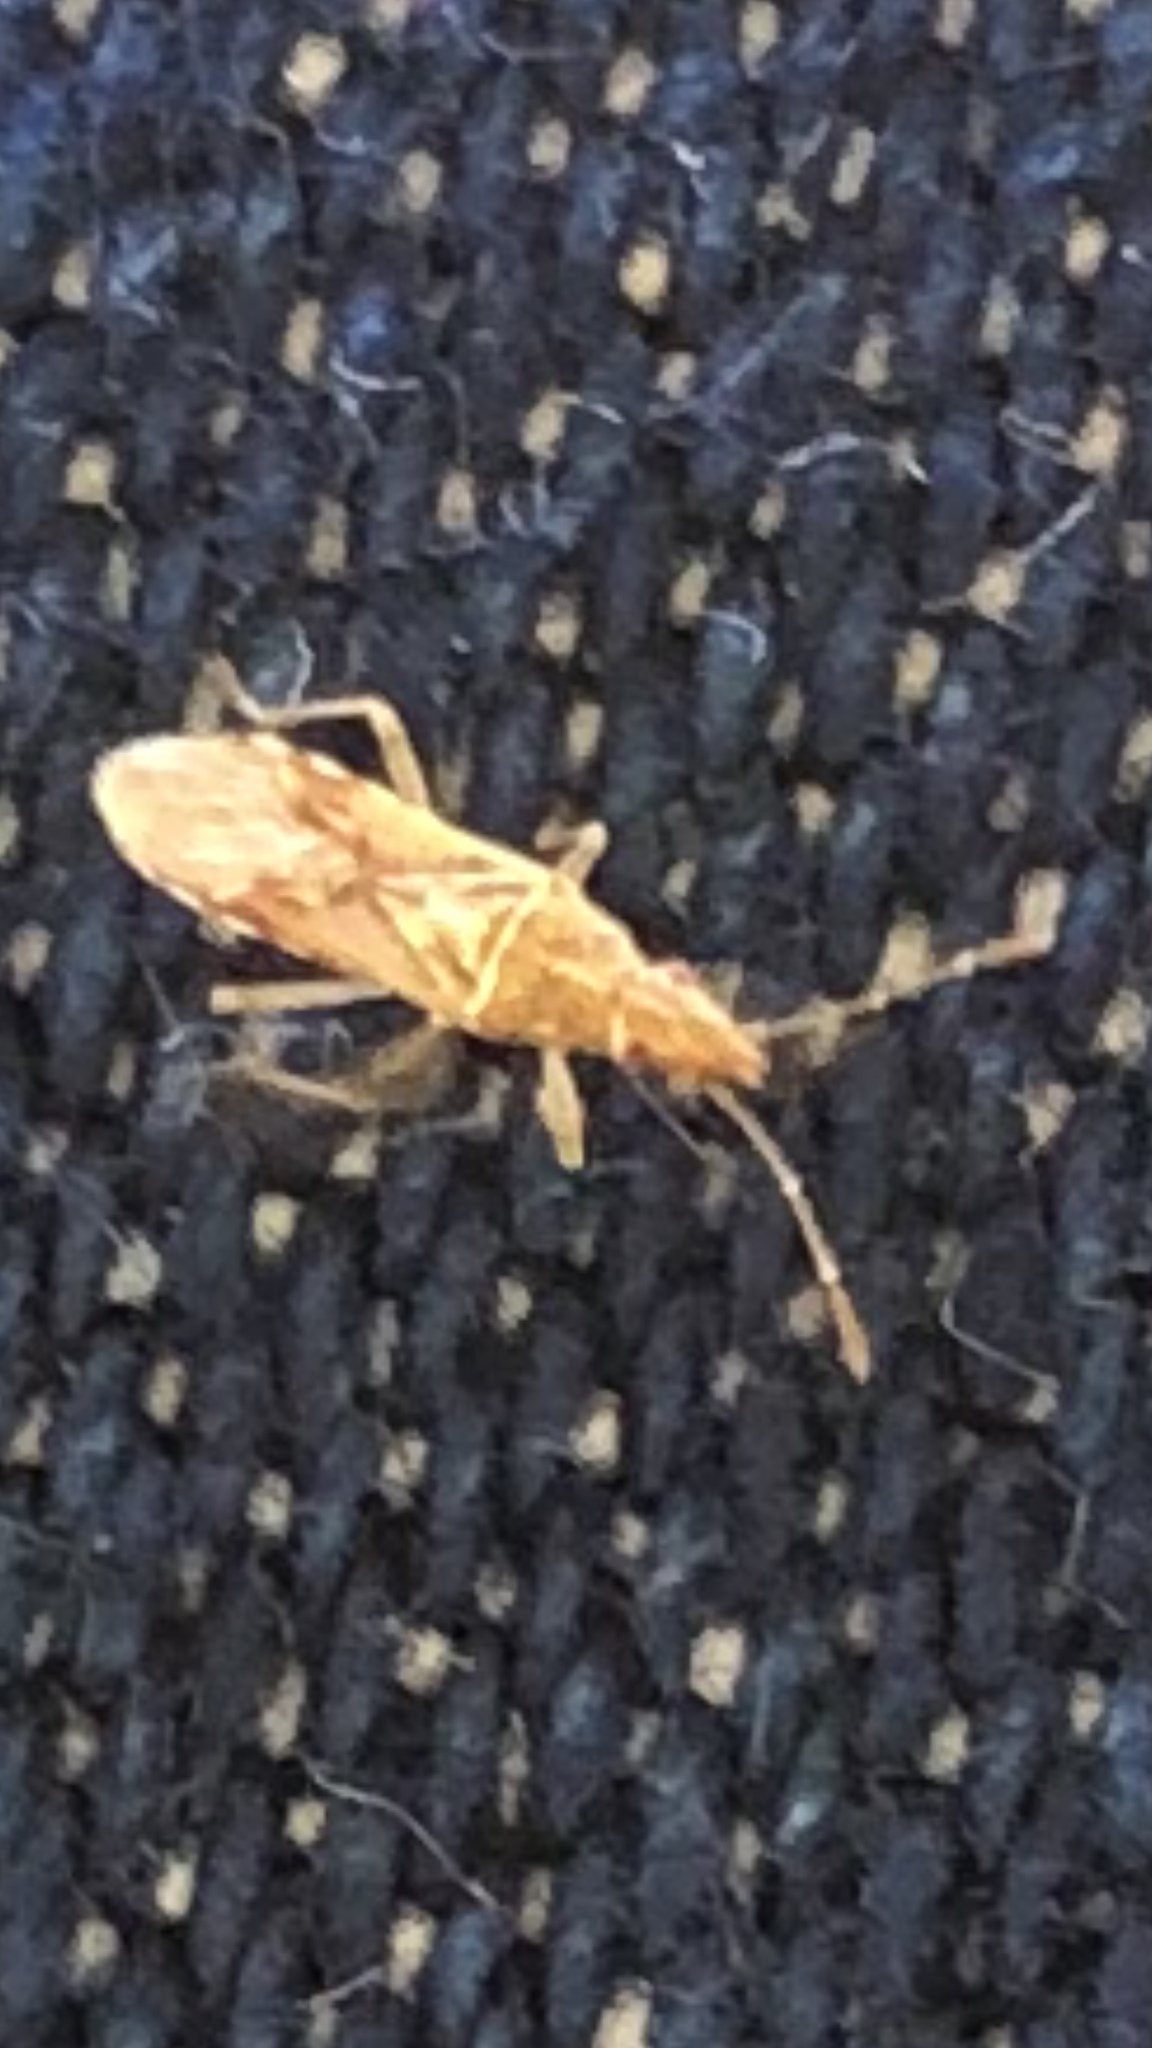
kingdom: Animalia
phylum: Arthropoda
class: Insecta
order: Hemiptera
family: Lygaeidae
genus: Belonochilus
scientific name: Belonochilus numenius
